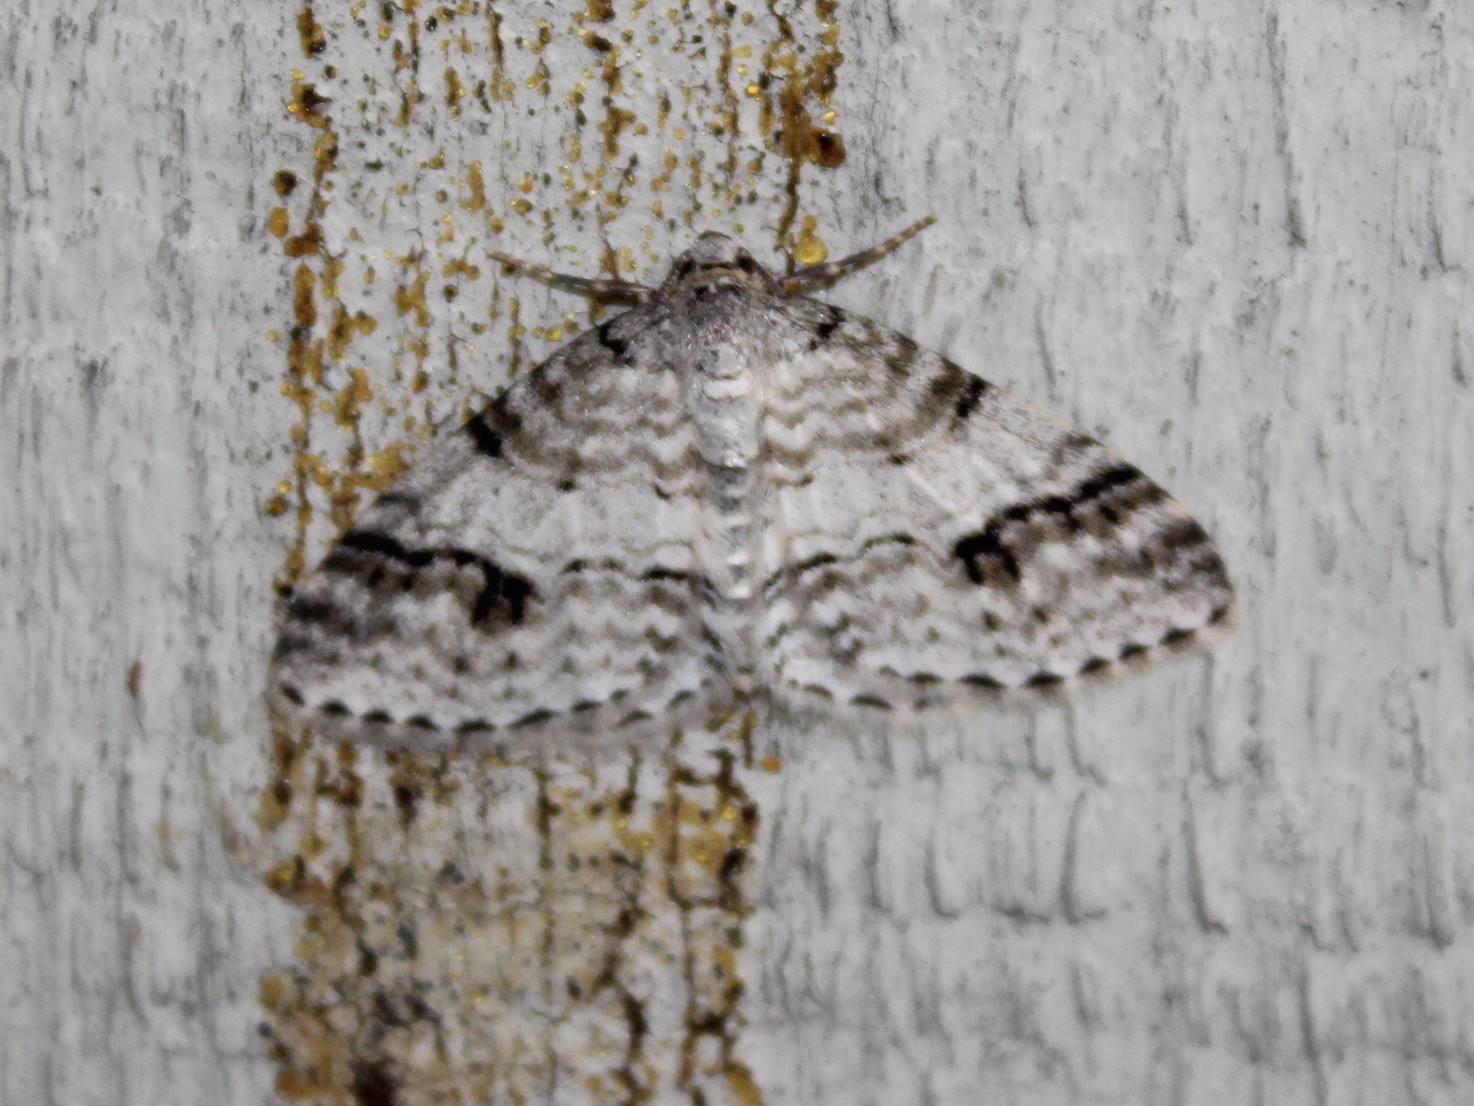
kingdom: Animalia
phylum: Arthropoda
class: Insecta
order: Lepidoptera
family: Geometridae
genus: Venusia
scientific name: Venusia cambrica
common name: Welsh wave
